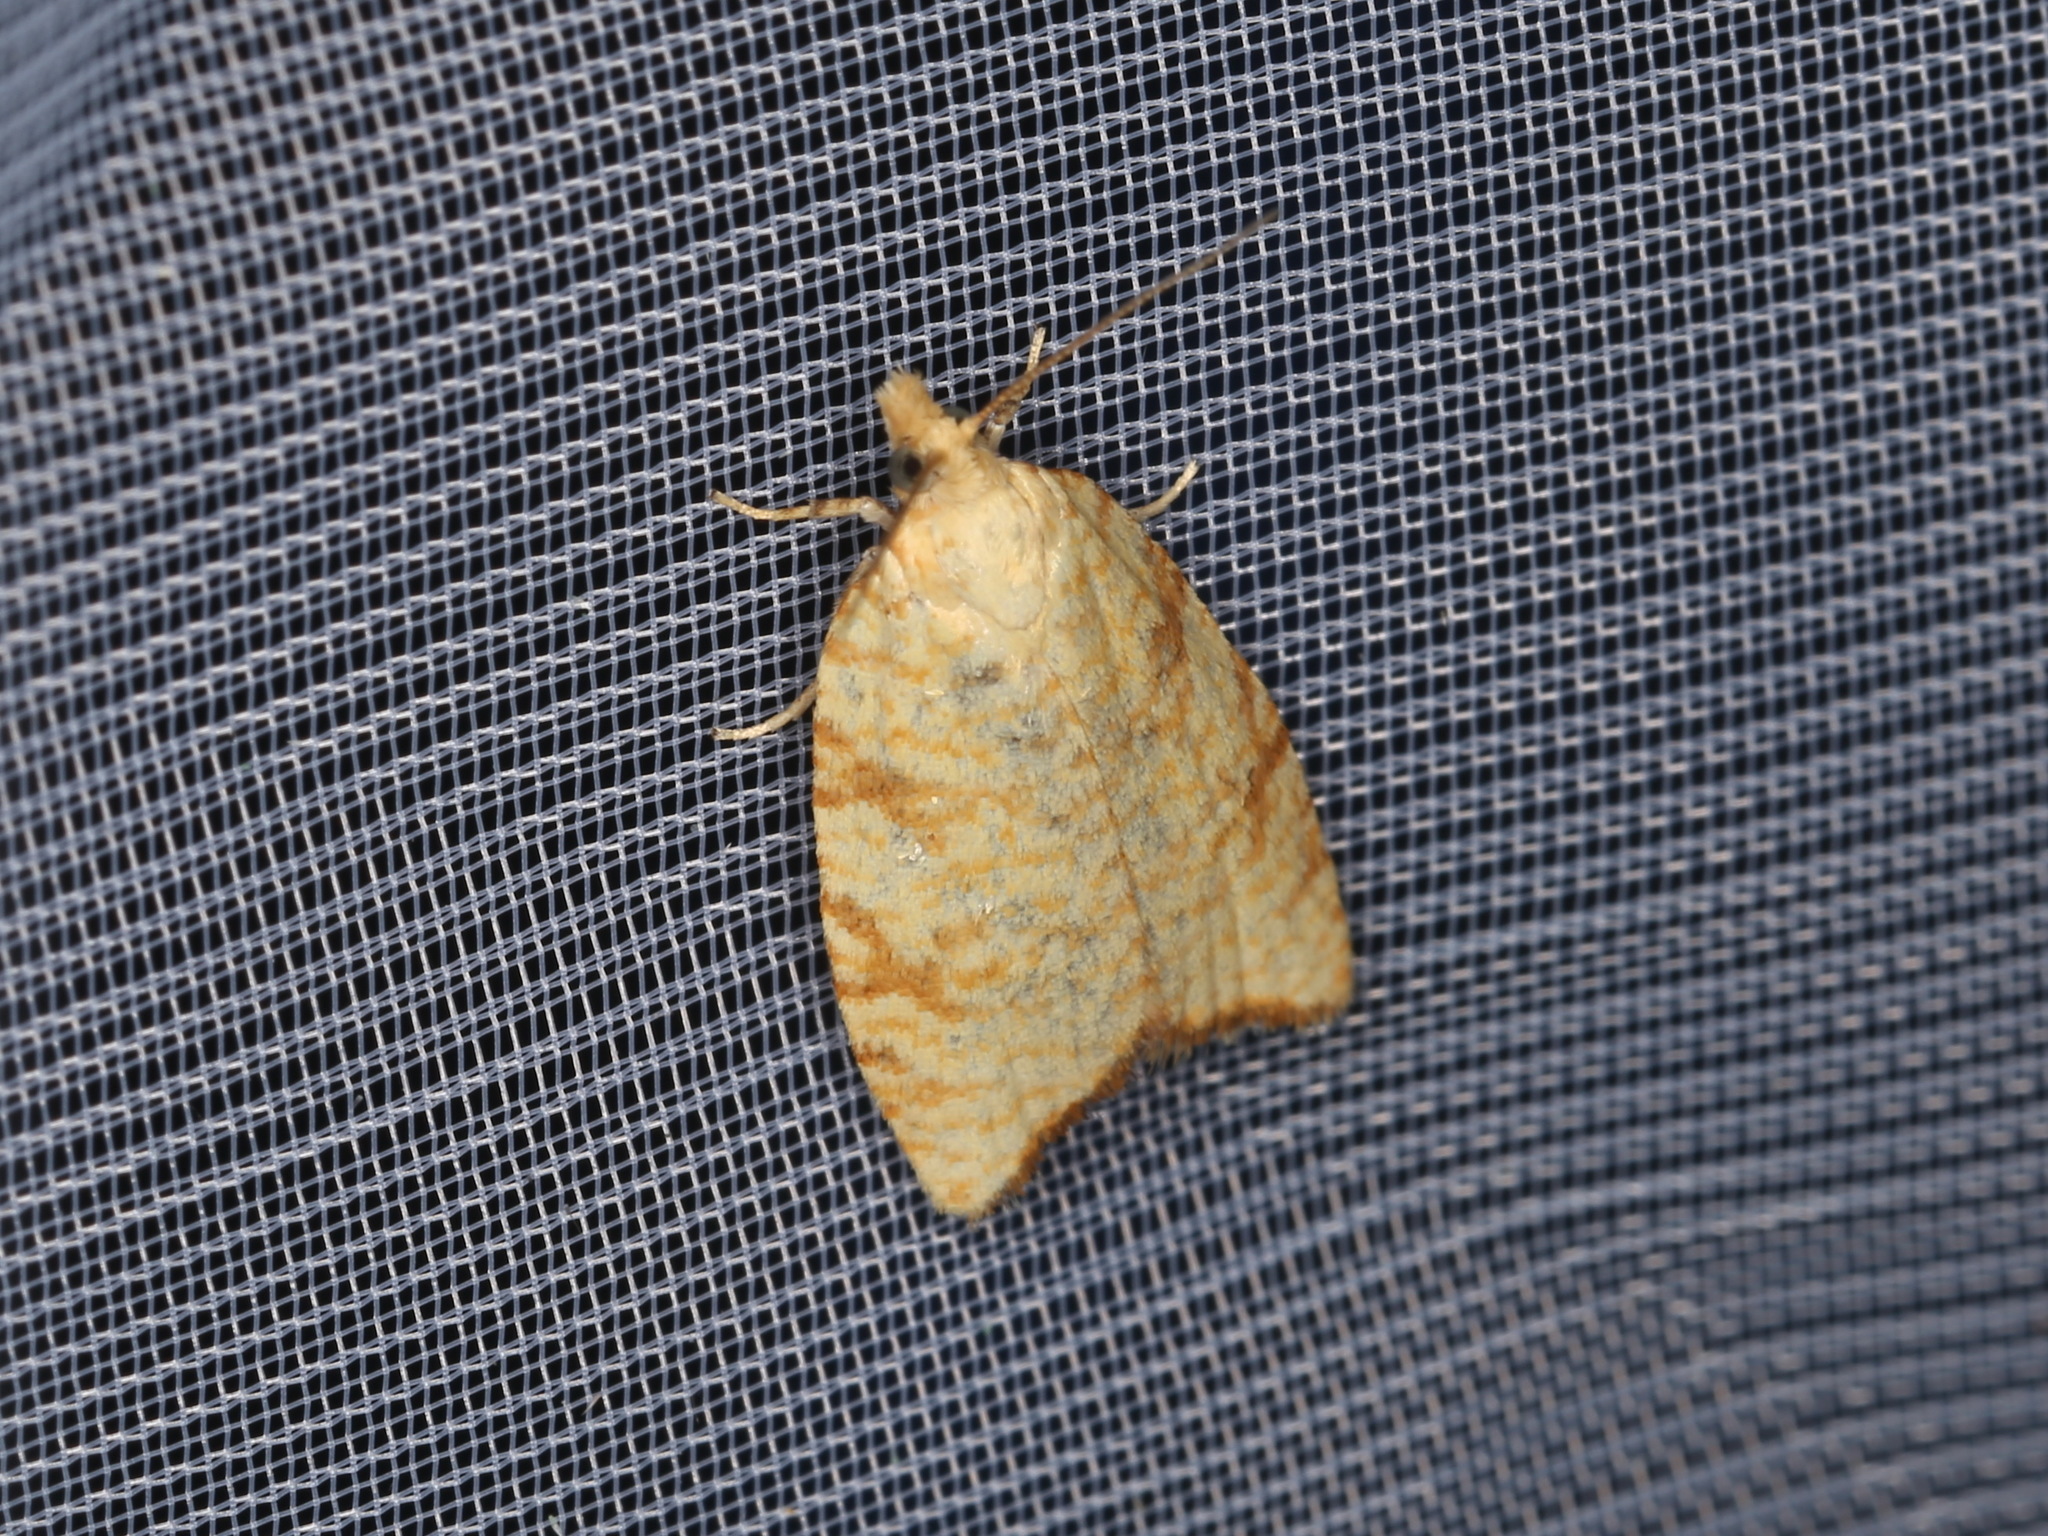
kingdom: Animalia
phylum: Arthropoda
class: Insecta
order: Lepidoptera
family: Tortricidae
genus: Aleimma
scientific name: Aleimma loeflingiana
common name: Yellow oak button
